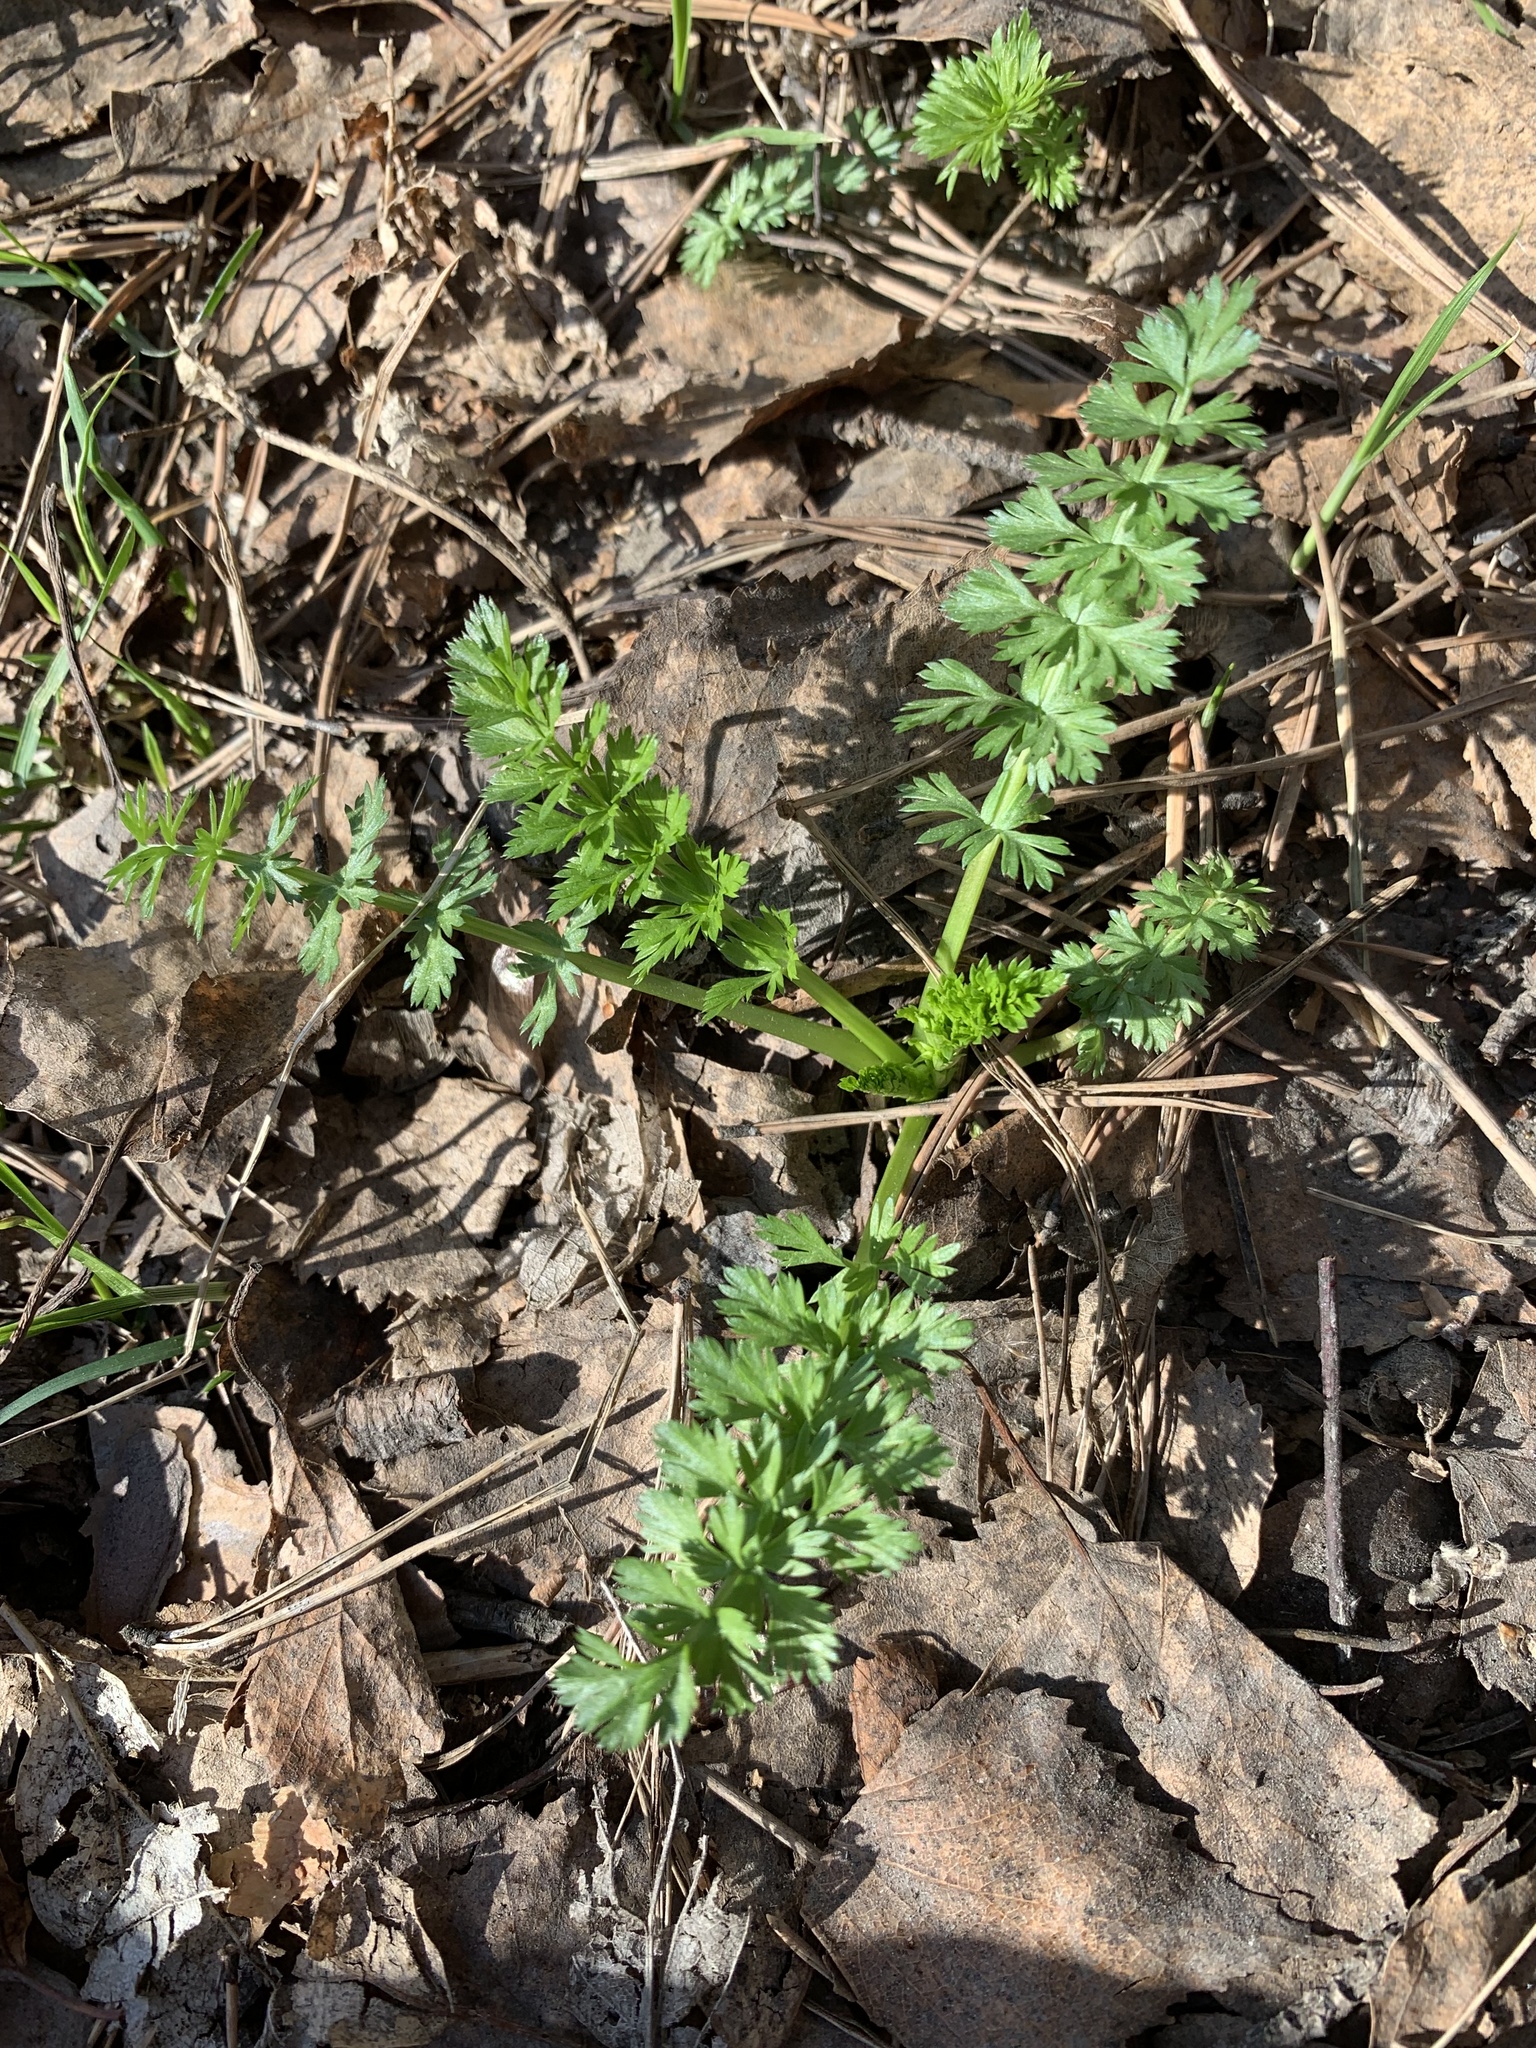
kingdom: Plantae
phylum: Tracheophyta
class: Magnoliopsida
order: Apiales
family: Apiaceae
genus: Carum
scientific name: Carum carvi
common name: Caraway
